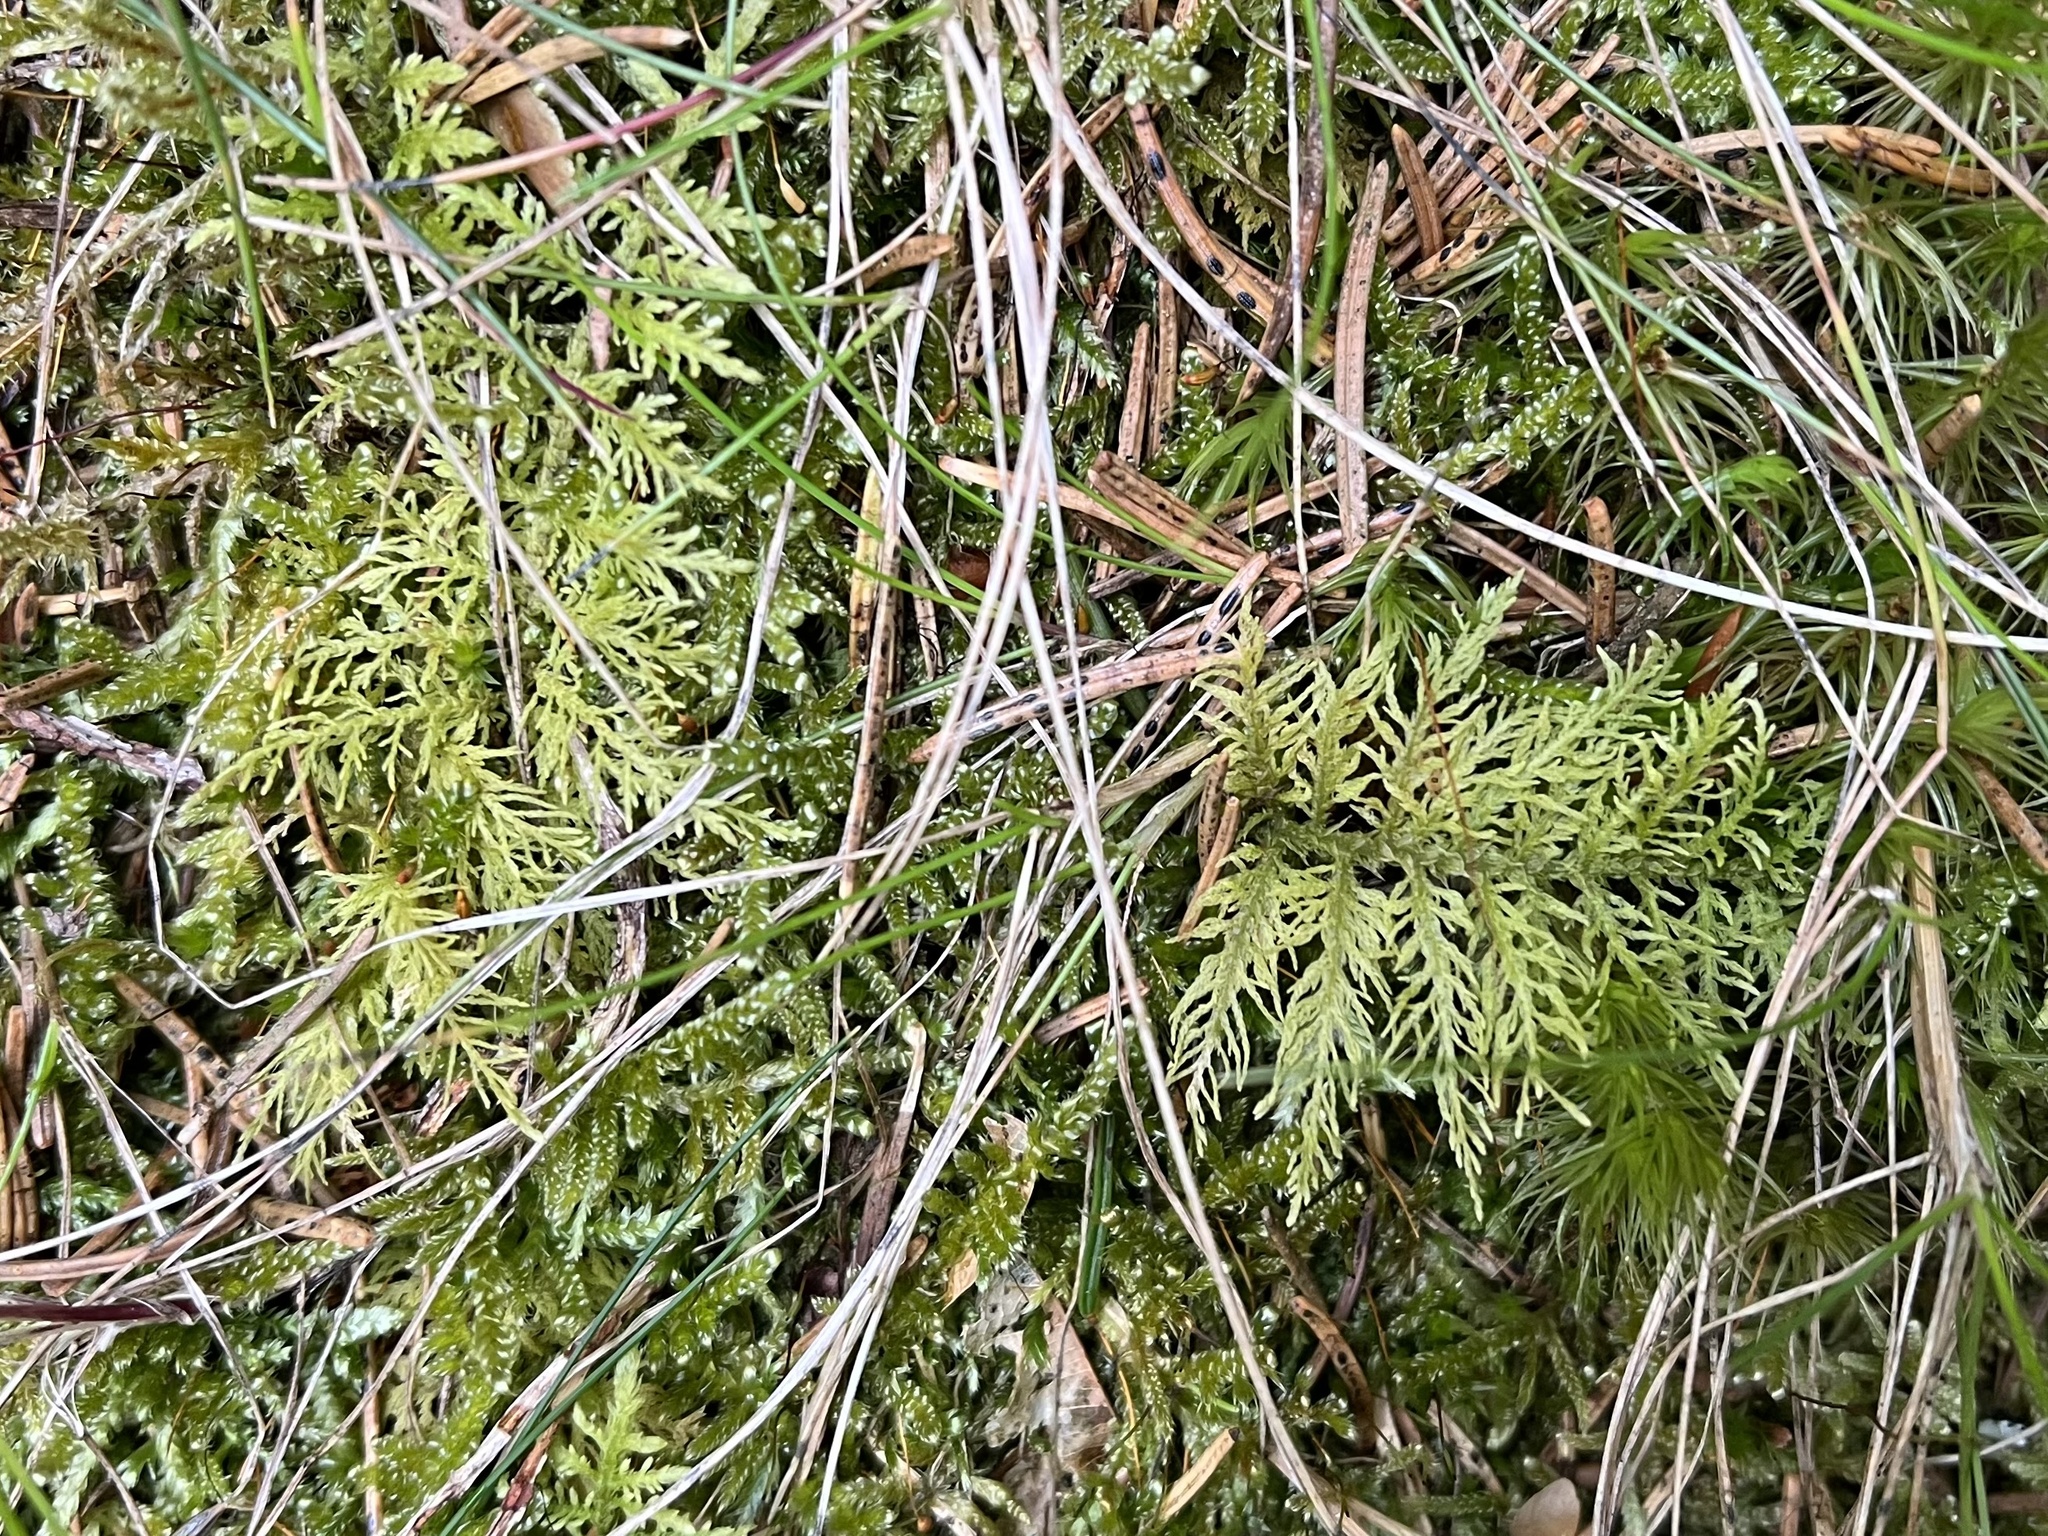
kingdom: Plantae
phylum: Bryophyta
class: Bryopsida
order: Hypnales
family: Hylocomiaceae
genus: Hylocomium
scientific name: Hylocomium splendens
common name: Stairstep moss
